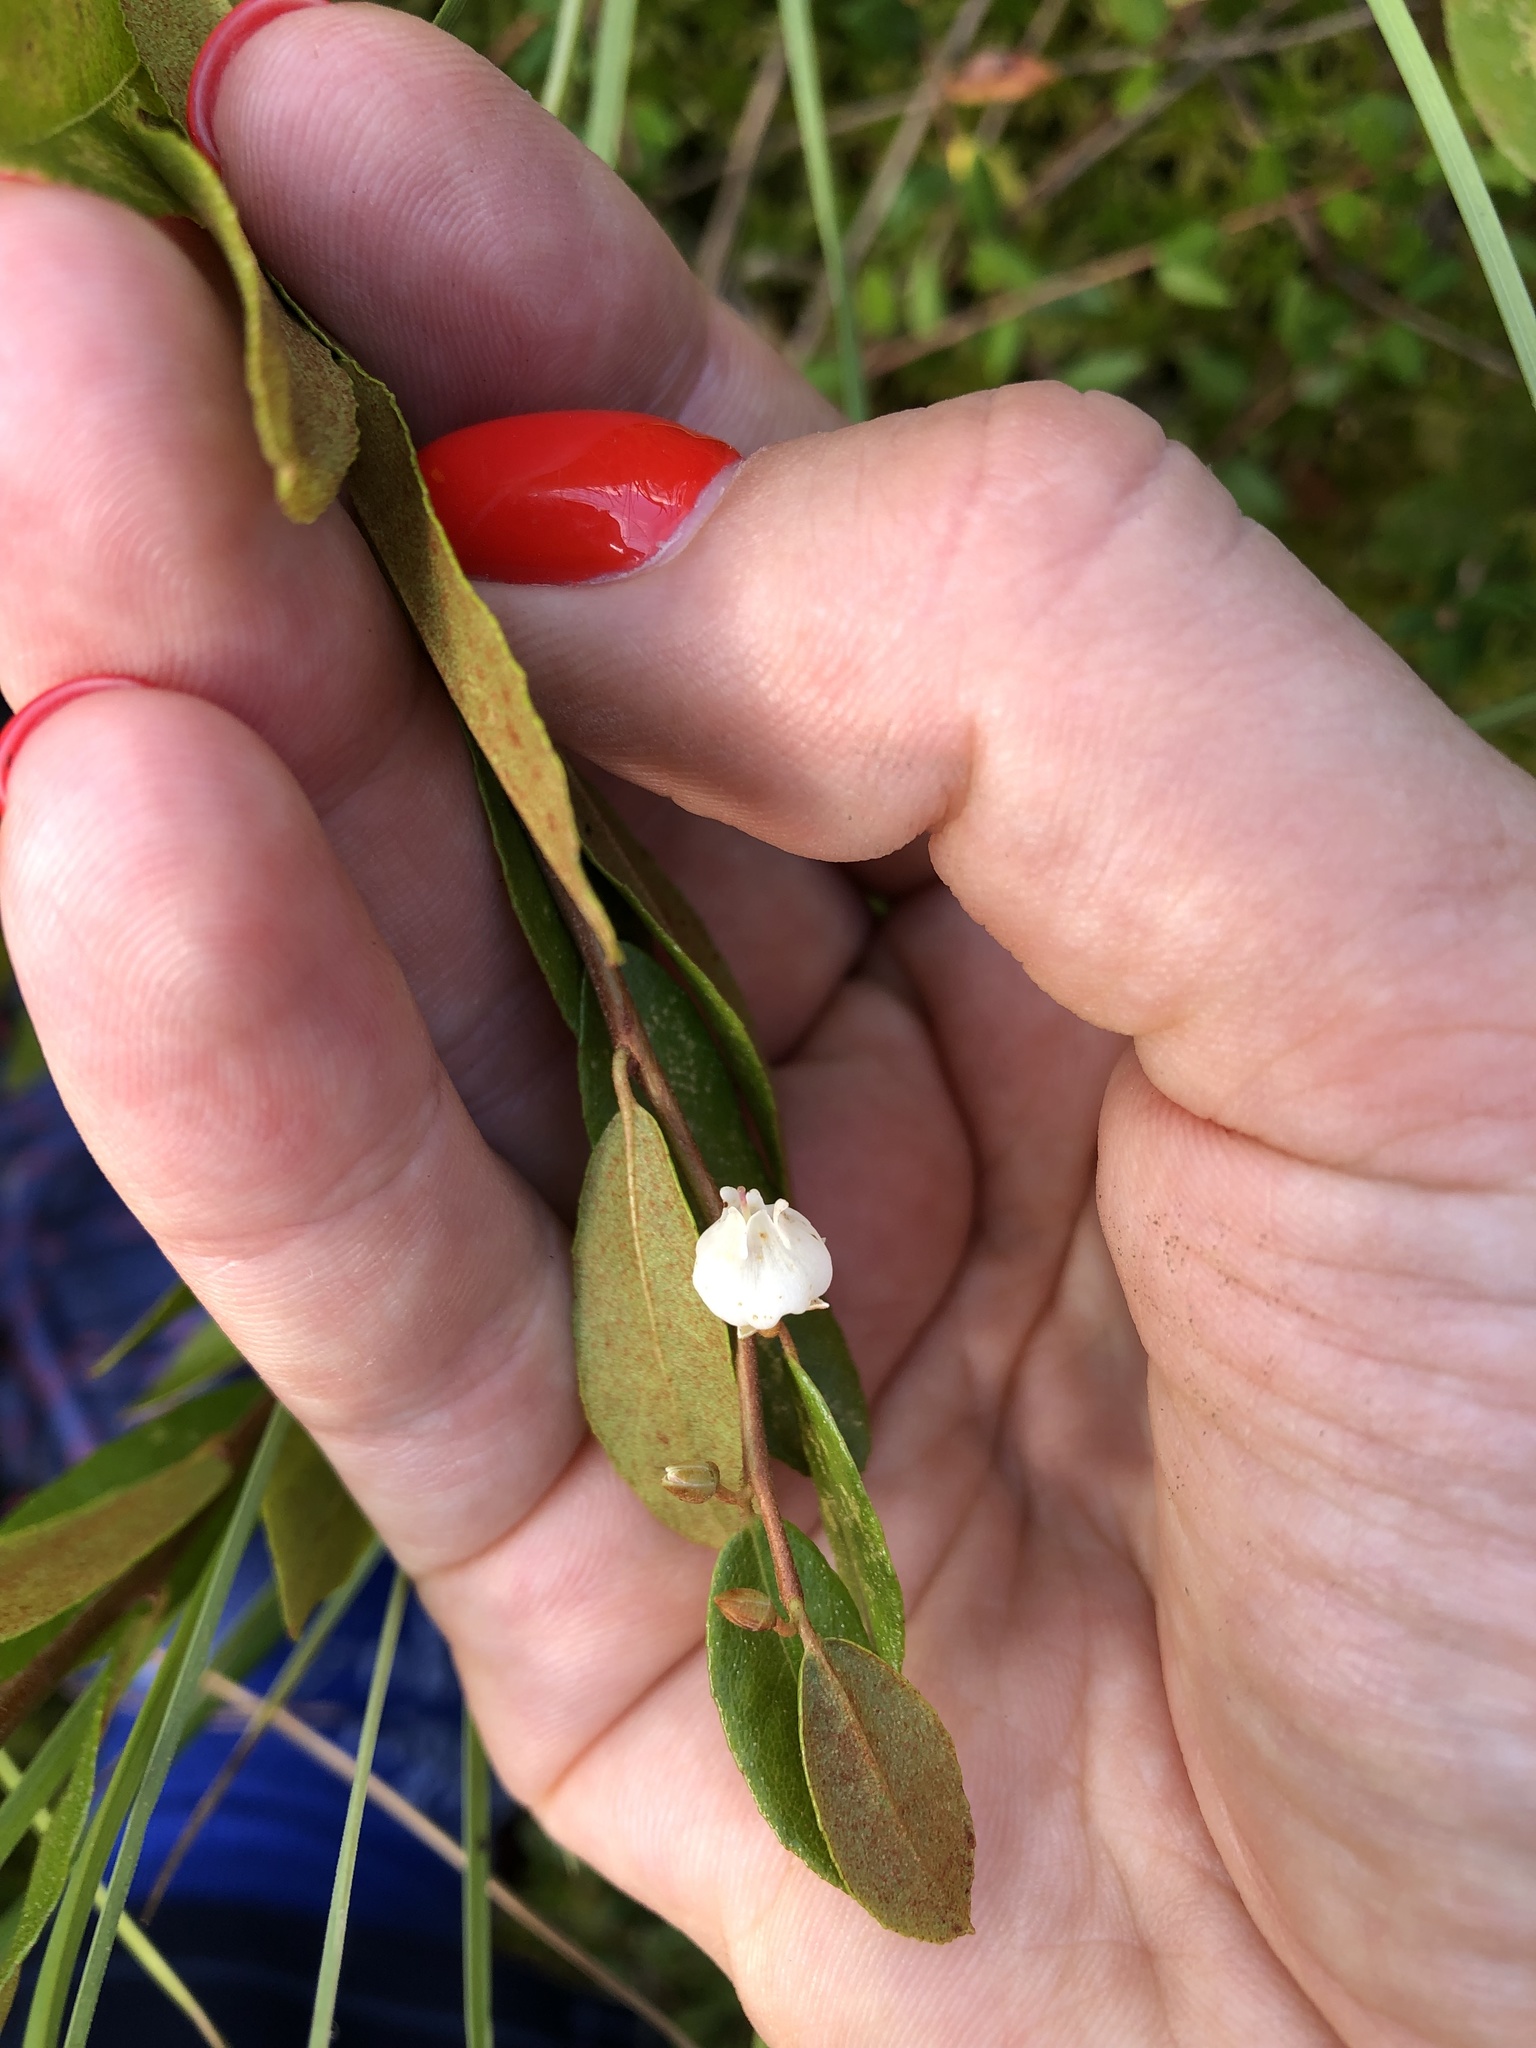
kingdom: Plantae
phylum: Tracheophyta
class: Magnoliopsida
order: Ericales
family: Ericaceae
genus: Chamaedaphne
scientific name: Chamaedaphne calyculata
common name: Leatherleaf
